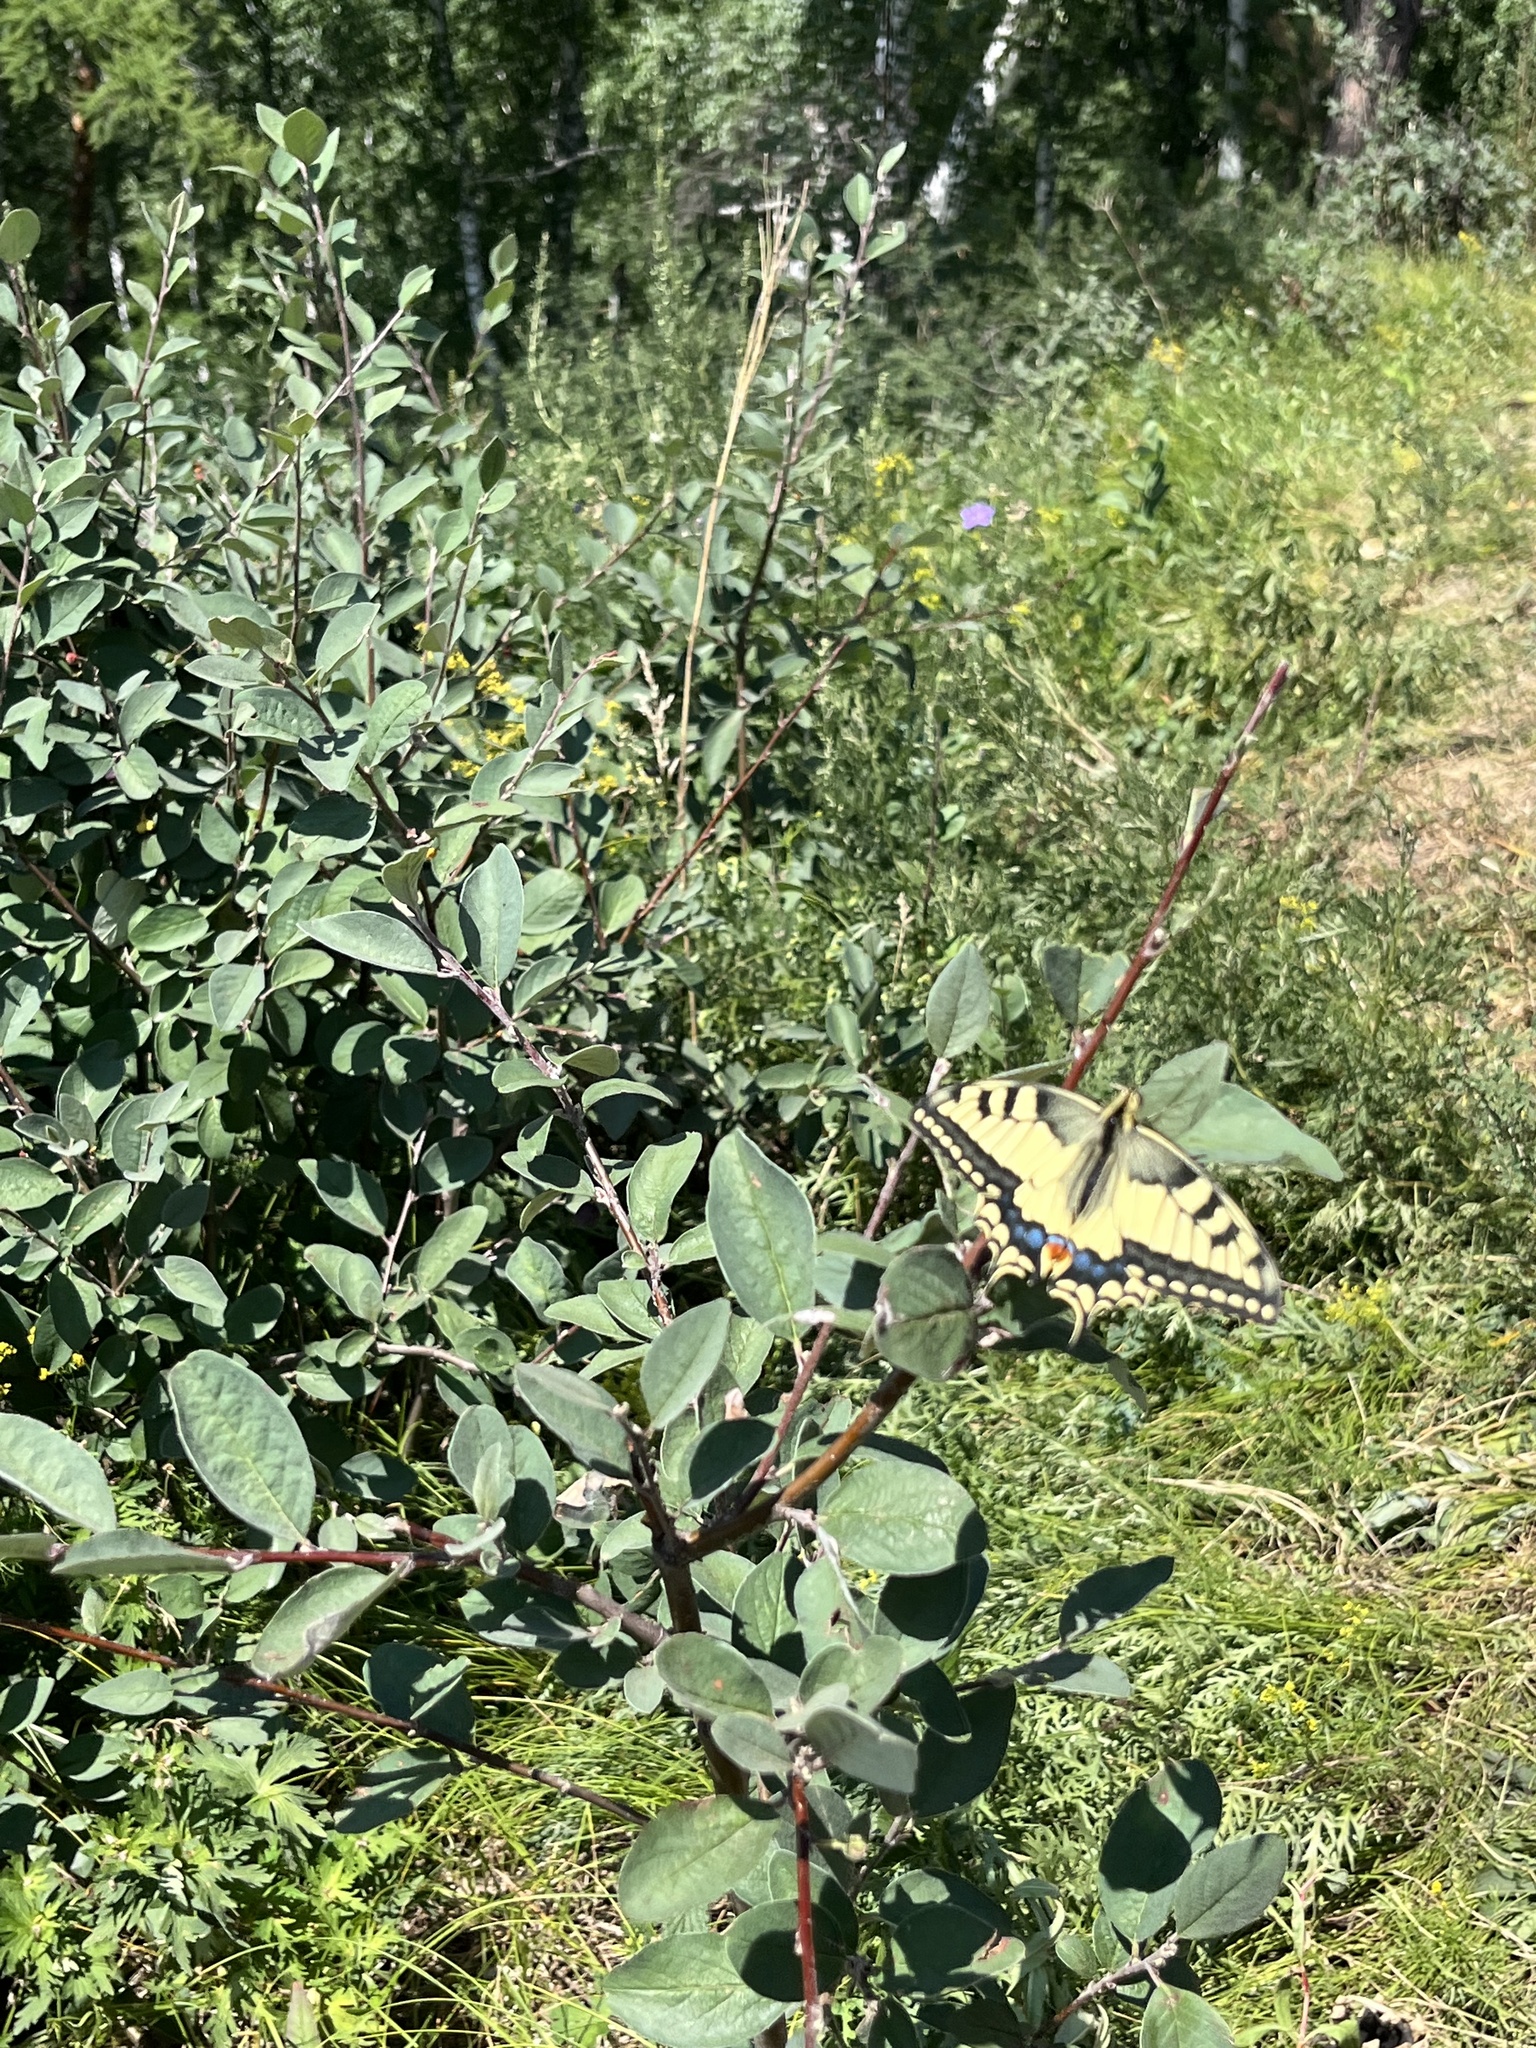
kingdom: Animalia
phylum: Arthropoda
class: Insecta
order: Lepidoptera
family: Papilionidae
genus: Papilio
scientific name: Papilio machaon
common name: Swallowtail
